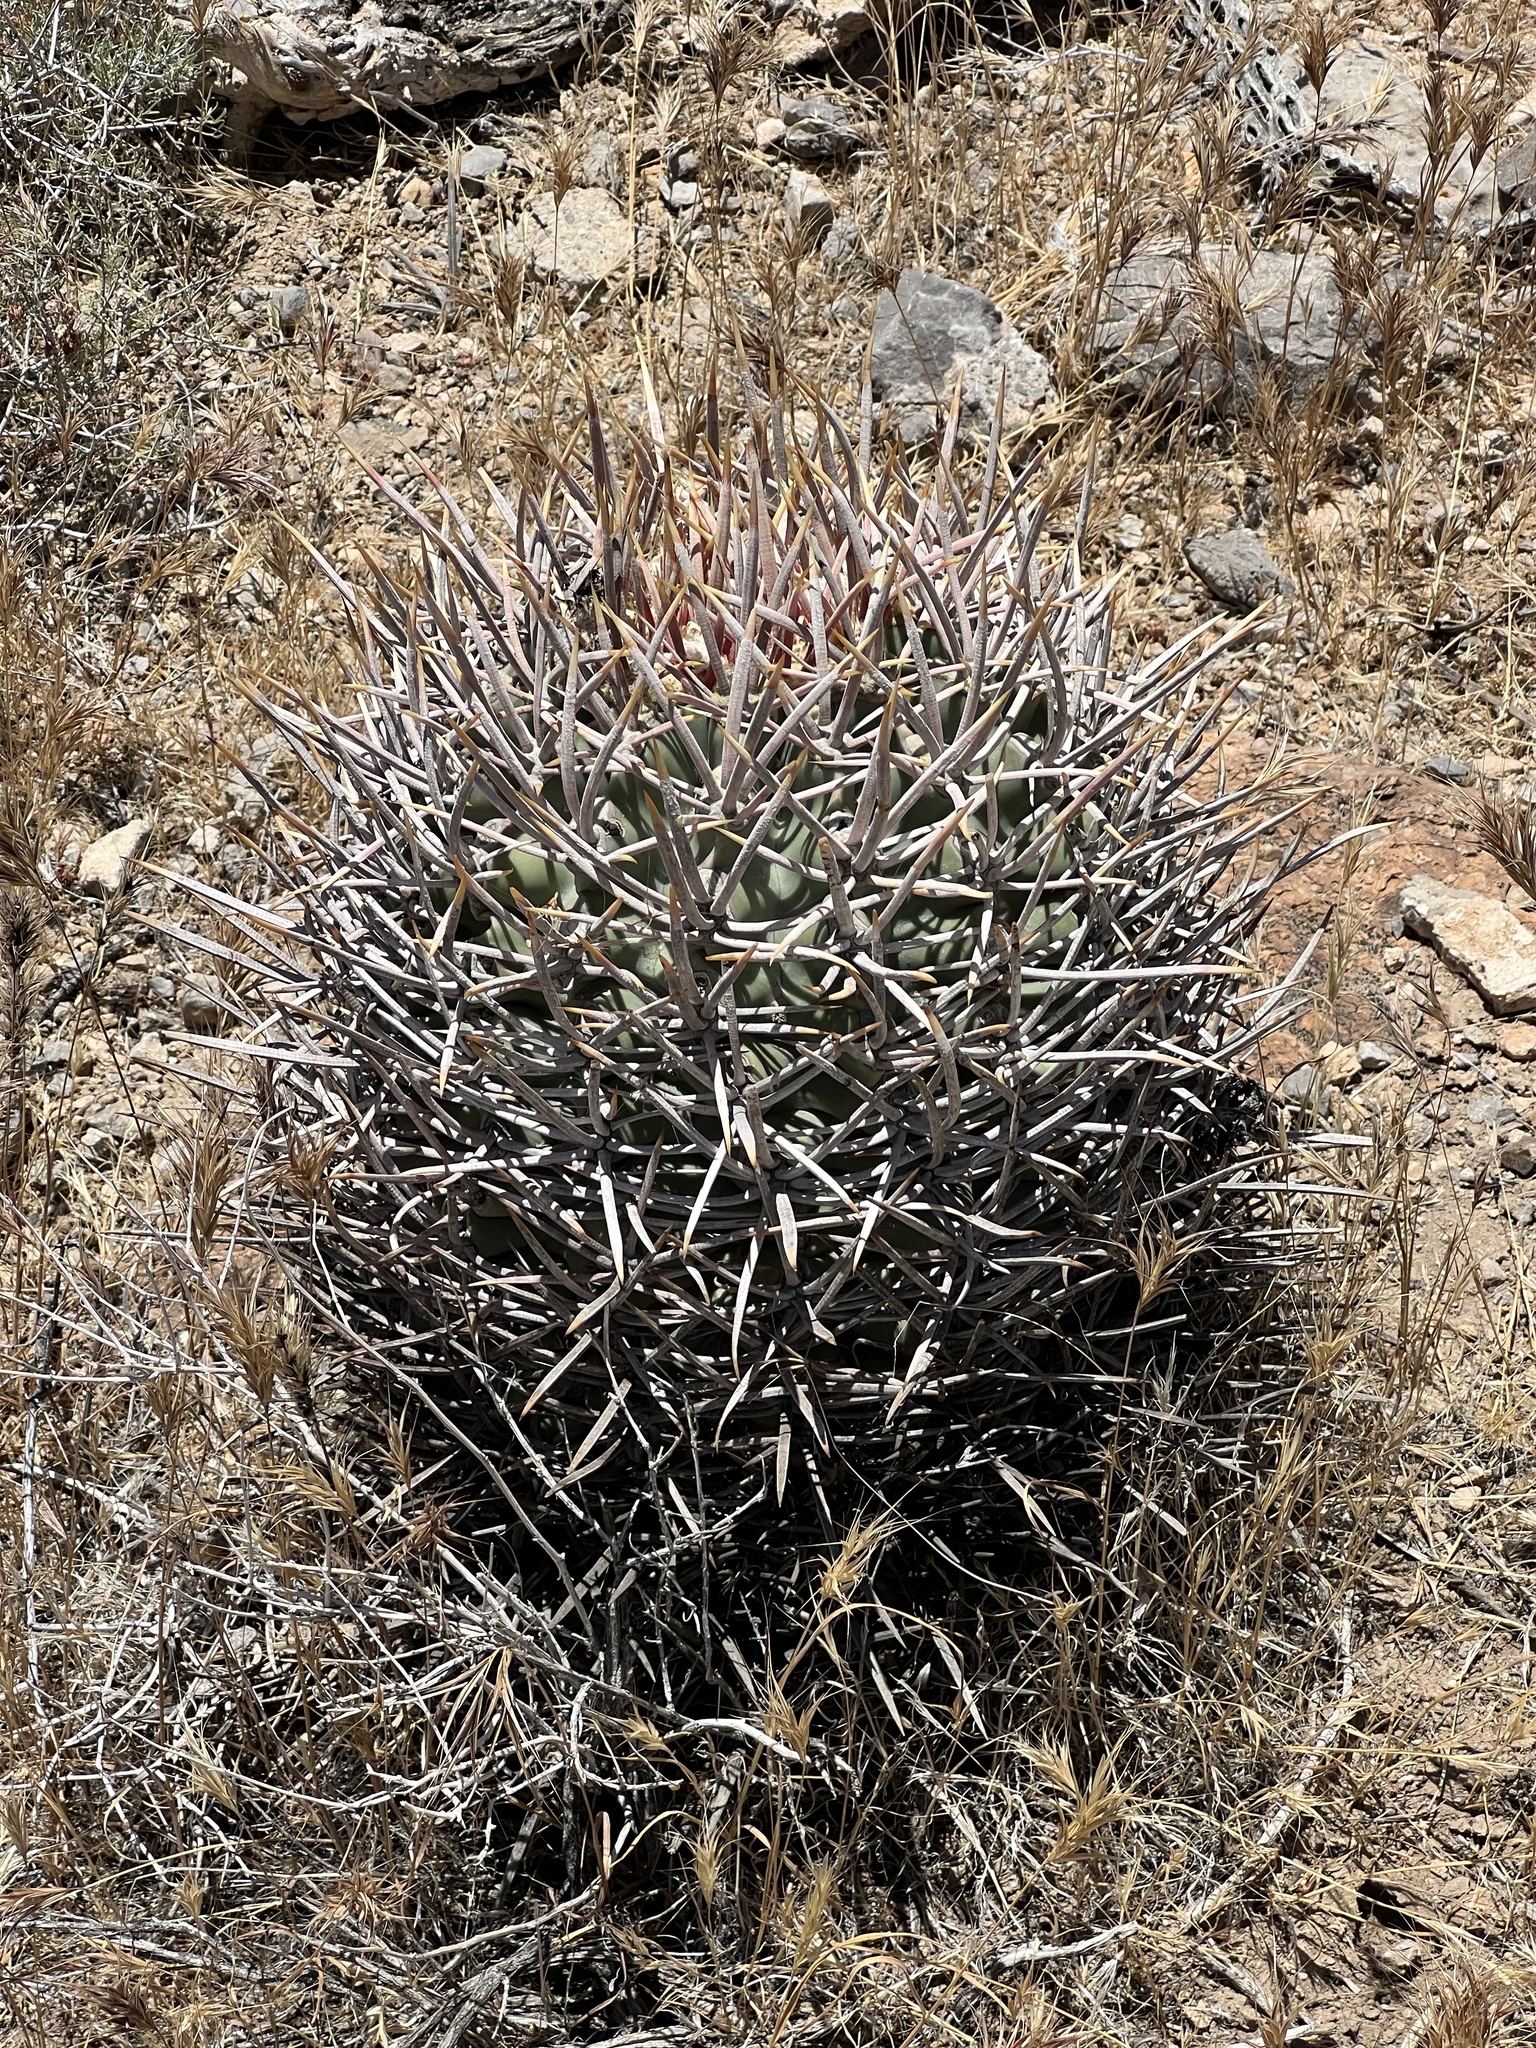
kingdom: Plantae
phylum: Tracheophyta
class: Magnoliopsida
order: Caryophyllales
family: Cactaceae
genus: Echinocactus
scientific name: Echinocactus polycephalus
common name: Cottontop cactus
